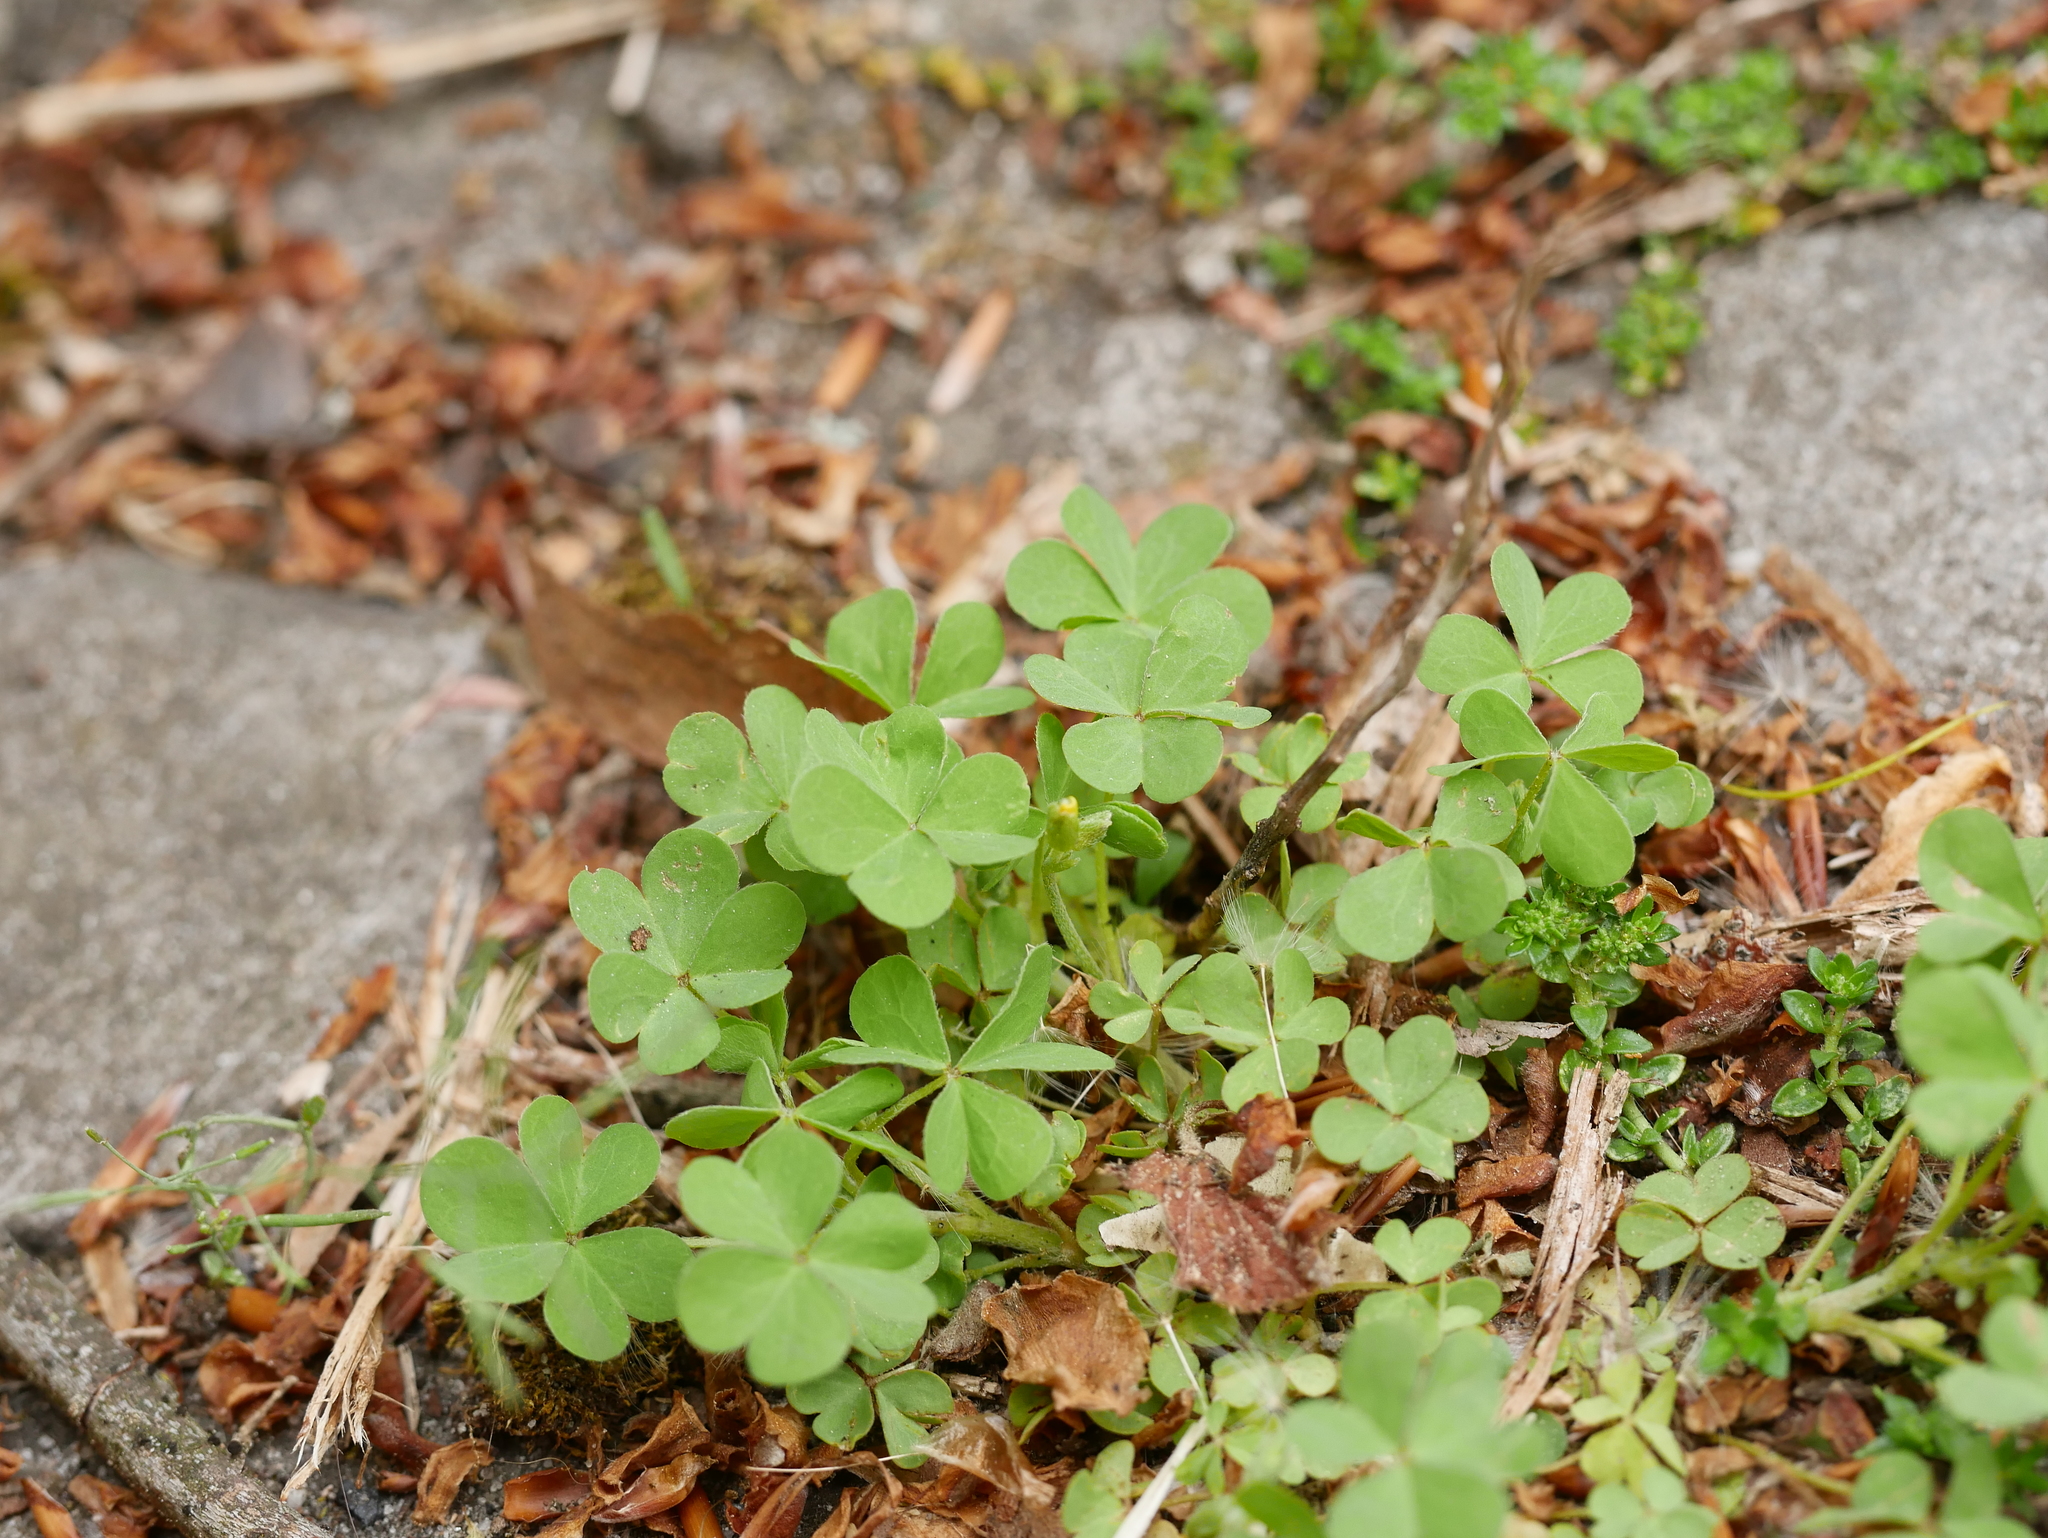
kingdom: Plantae
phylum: Tracheophyta
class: Magnoliopsida
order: Oxalidales
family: Oxalidaceae
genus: Oxalis
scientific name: Oxalis corniculata
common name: Procumbent yellow-sorrel
